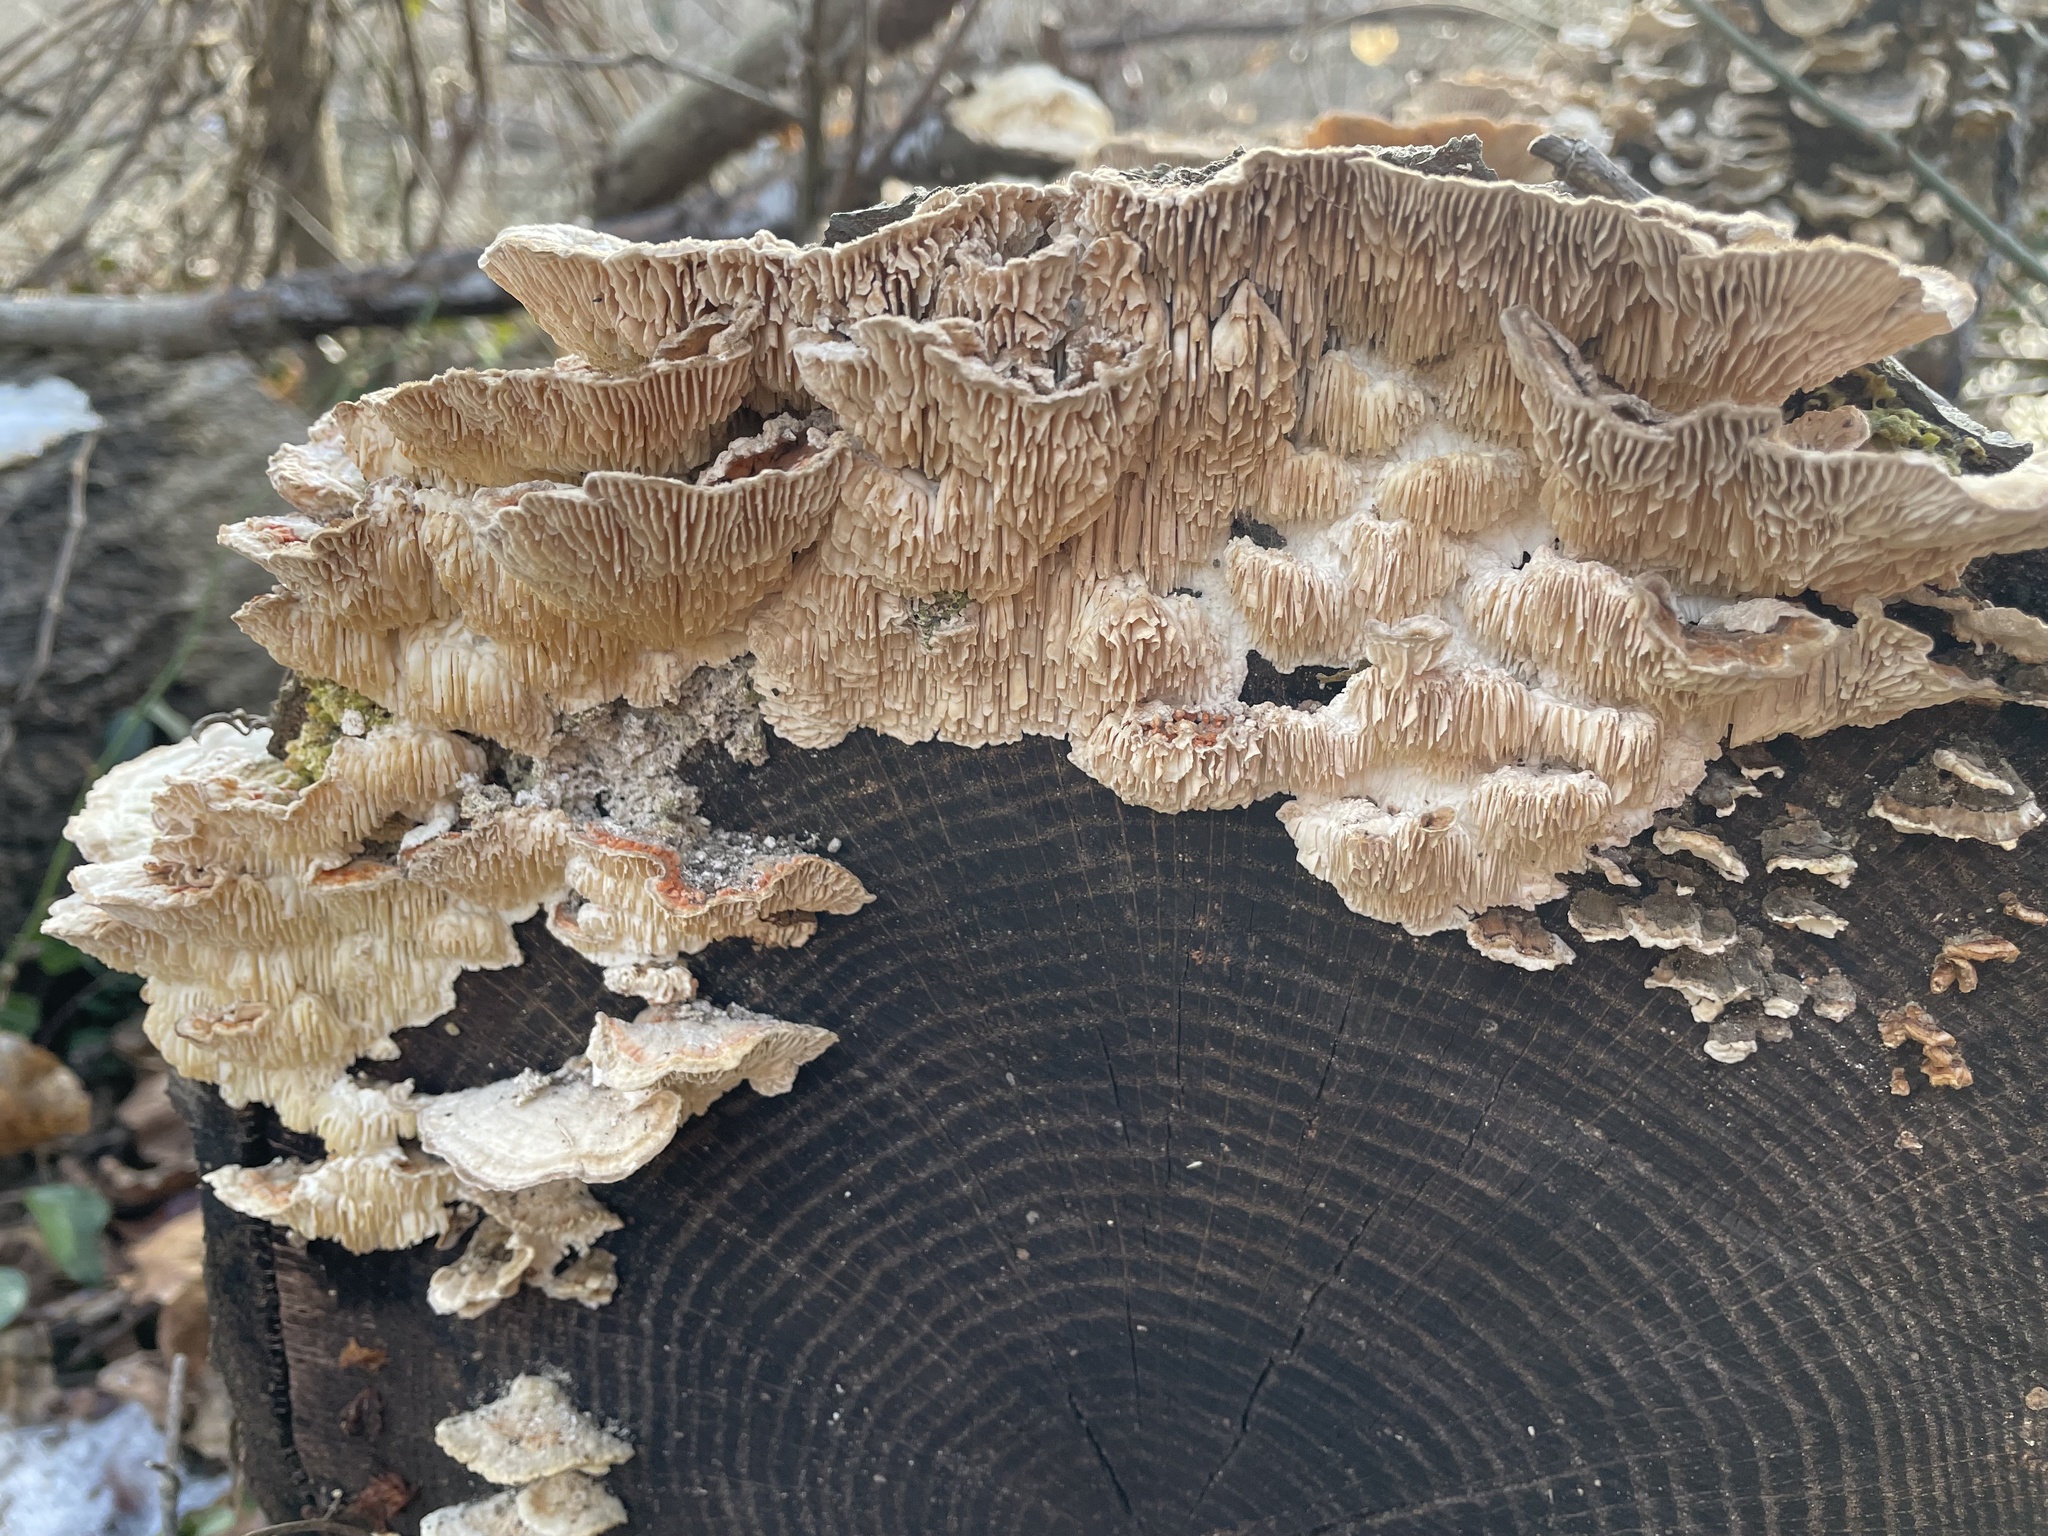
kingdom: Fungi
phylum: Basidiomycota
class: Agaricomycetes
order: Polyporales
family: Polyporaceae
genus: Lenzites
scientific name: Lenzites betulinus
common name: Birch mazegill
